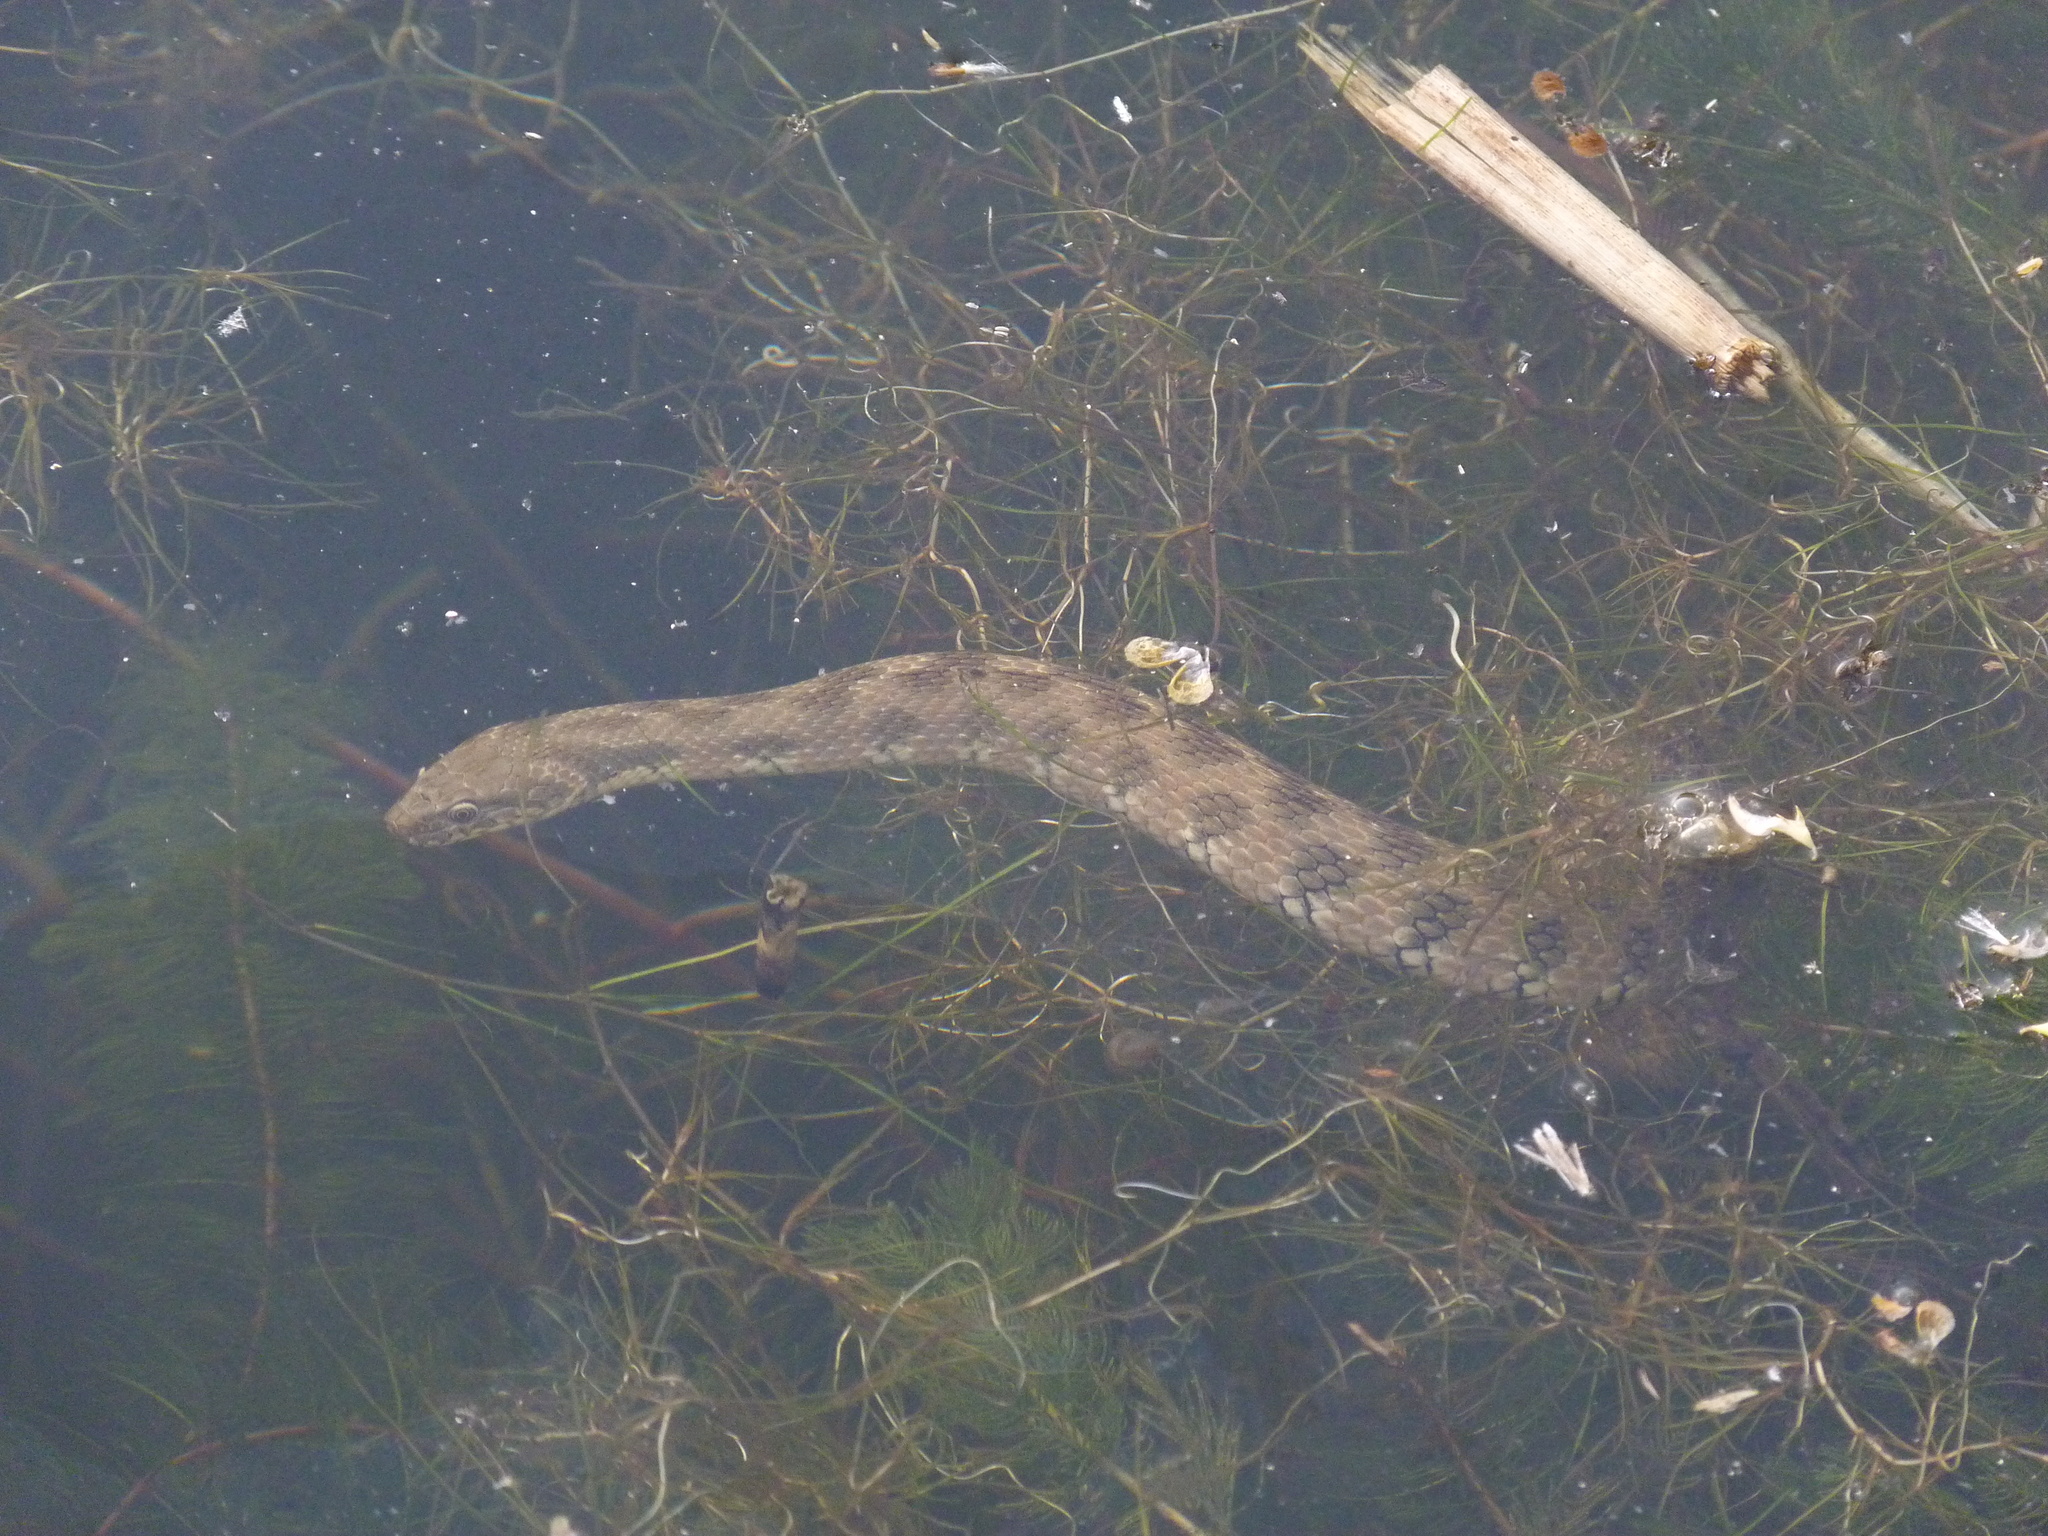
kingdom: Animalia
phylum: Chordata
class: Squamata
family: Colubridae
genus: Natrix
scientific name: Natrix maura
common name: Viperine water snake
